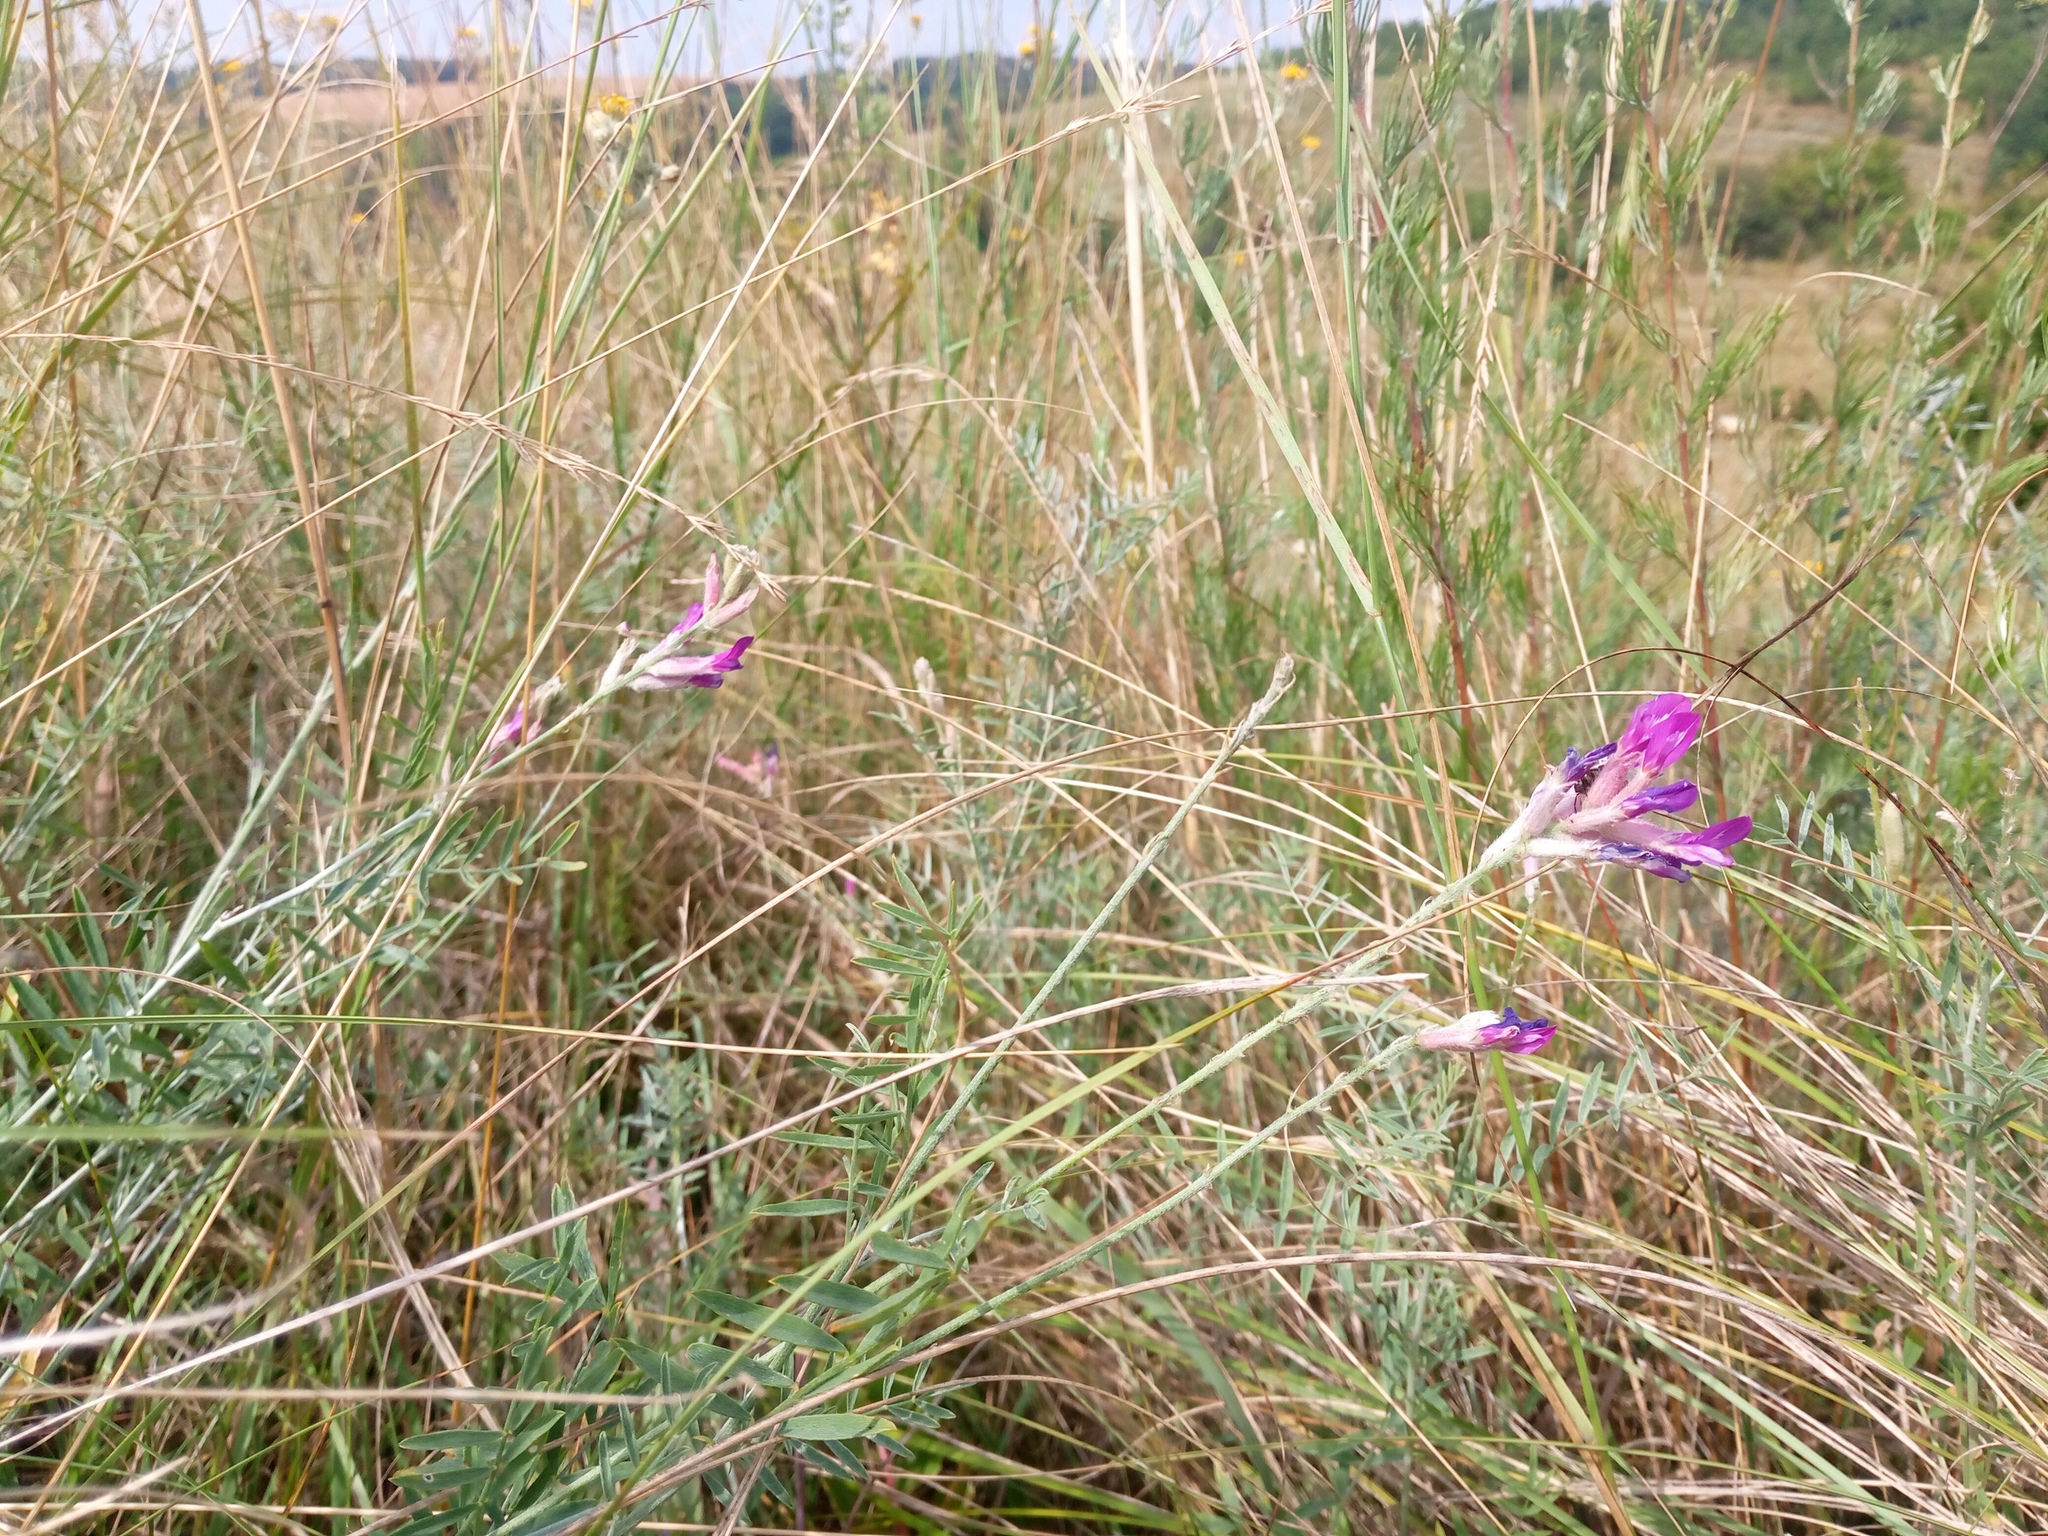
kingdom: Plantae
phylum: Tracheophyta
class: Magnoliopsida
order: Fabales
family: Fabaceae
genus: Astragalus
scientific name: Astragalus varius
